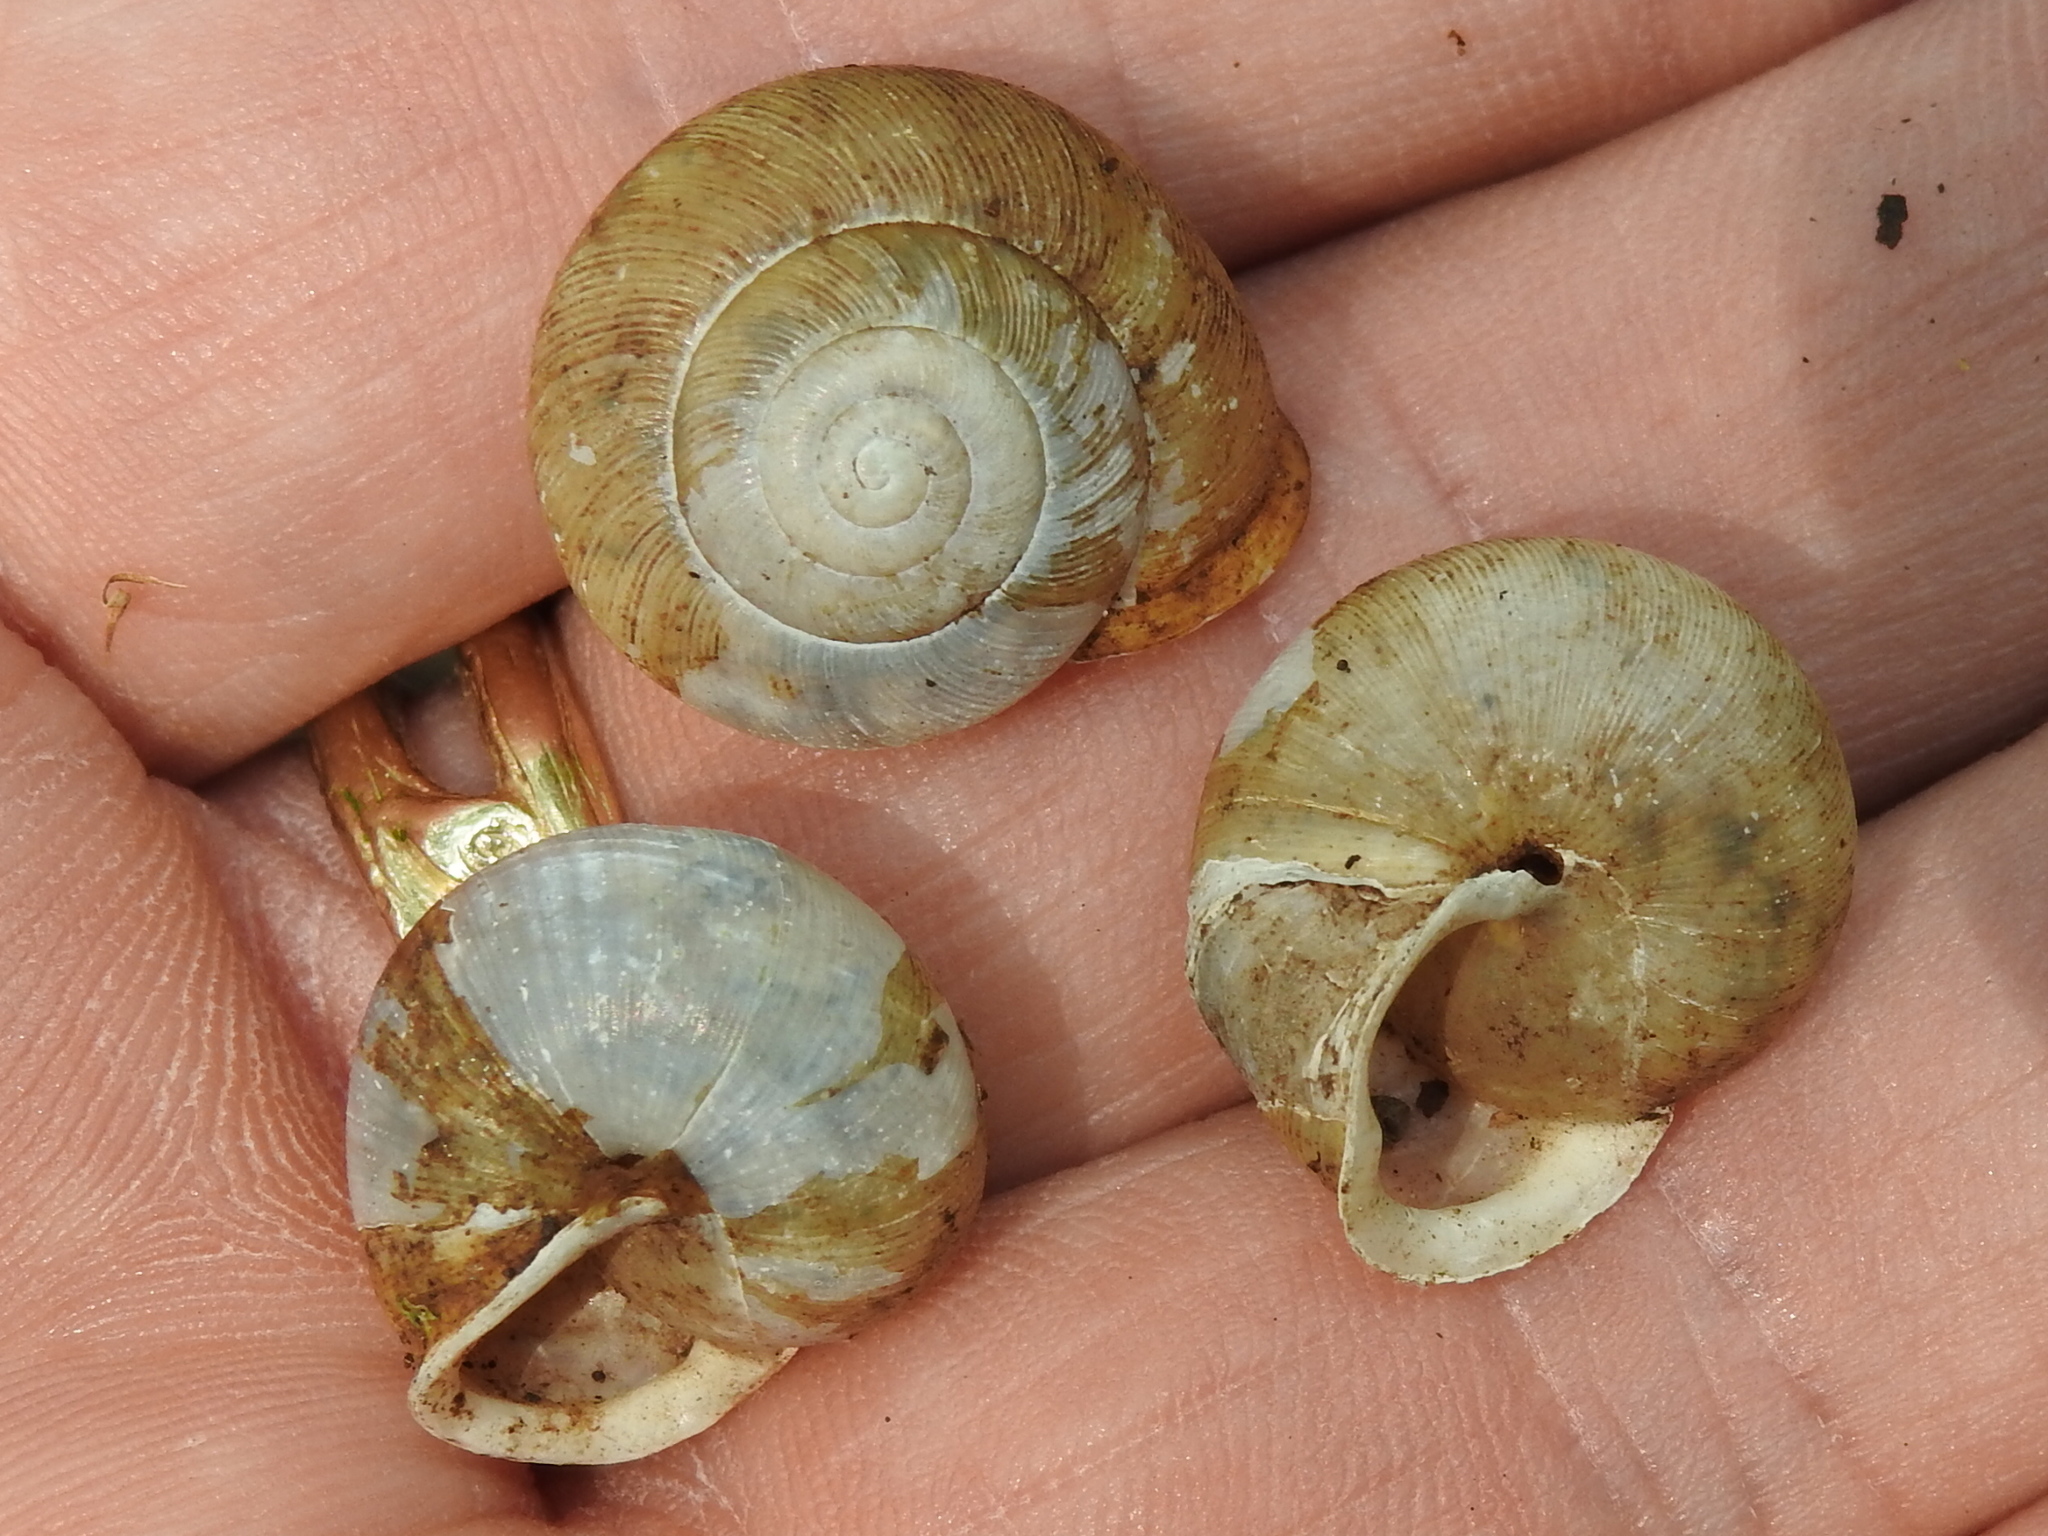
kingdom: Animalia
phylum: Mollusca
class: Gastropoda
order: Stylommatophora
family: Polygyridae
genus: Mesodon
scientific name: Mesodon thyroidus
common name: White-lip globe
